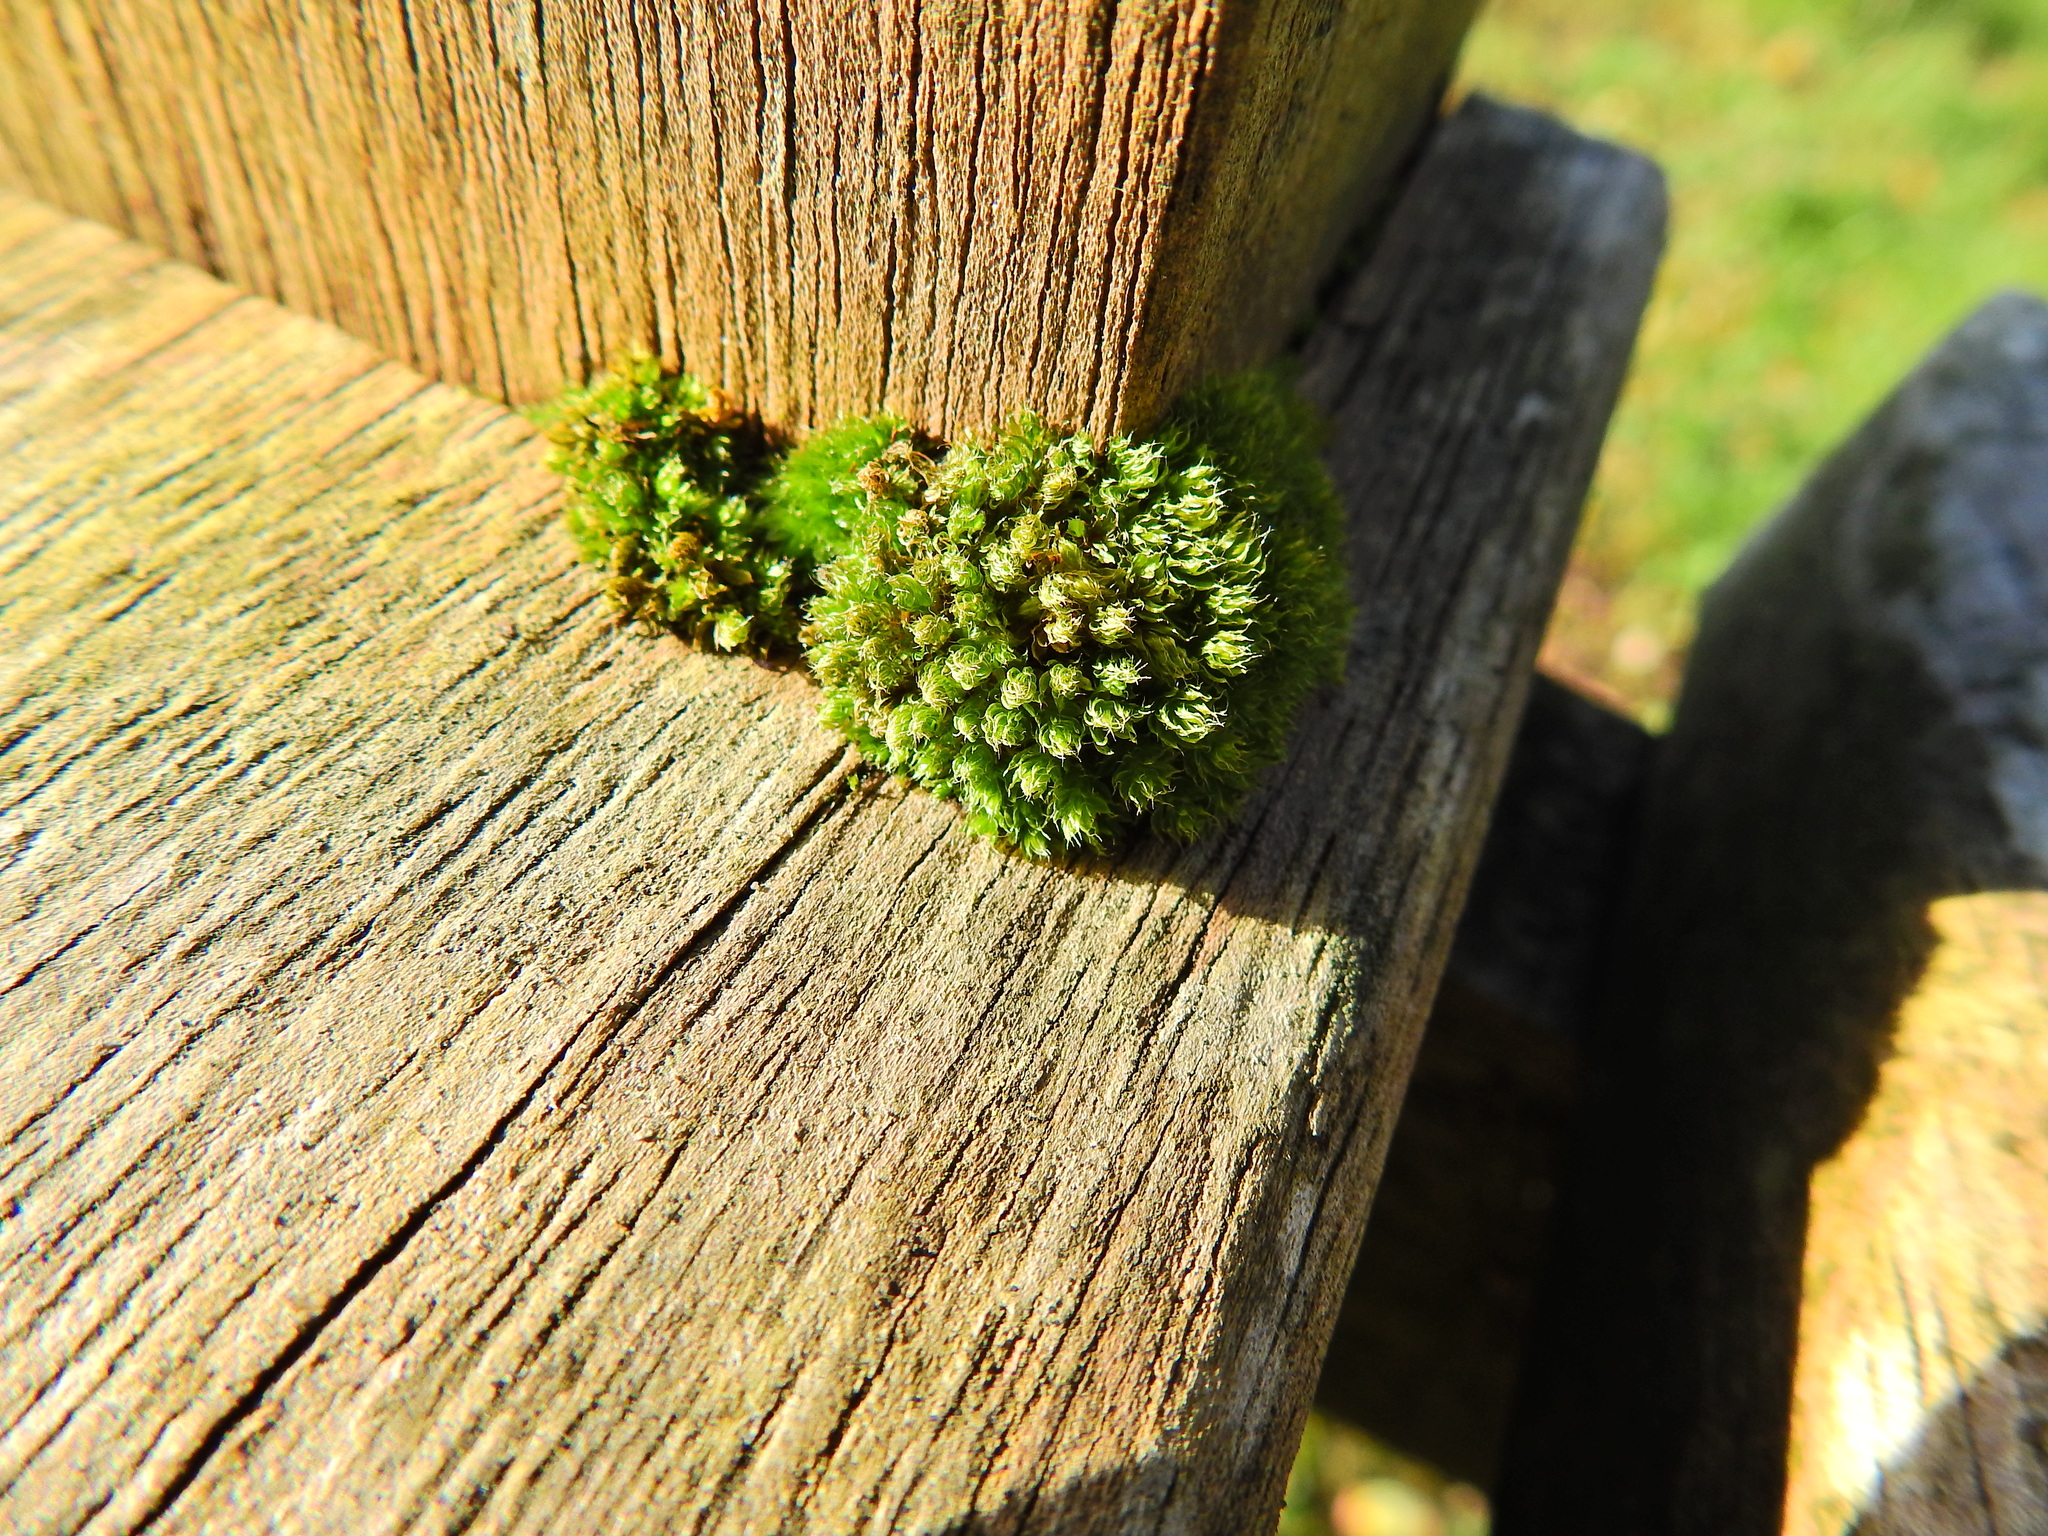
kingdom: Plantae
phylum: Bryophyta
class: Bryopsida
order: Bryales
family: Bryaceae
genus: Rosulabryum
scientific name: Rosulabryum capillare
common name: Capillary thread-moss
